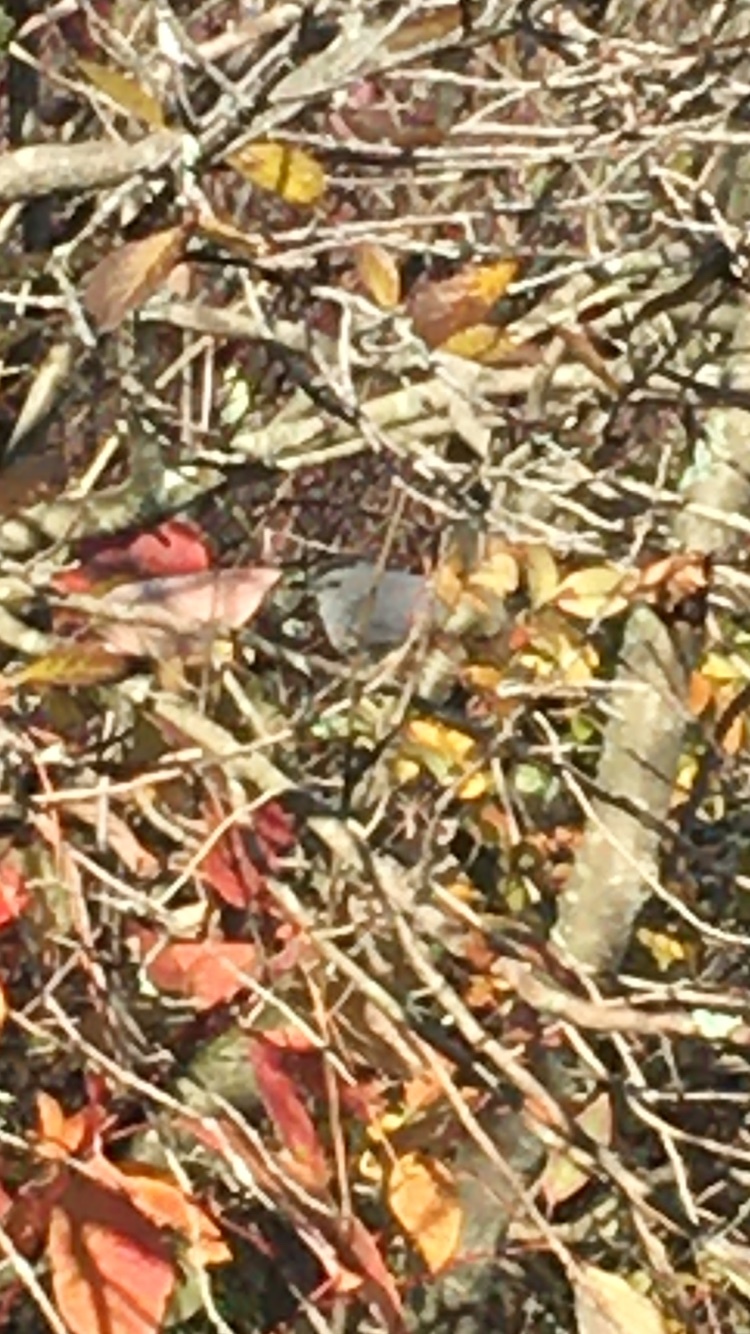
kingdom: Animalia
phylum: Chordata
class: Aves
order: Passeriformes
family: Mimidae
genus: Dumetella
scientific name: Dumetella carolinensis
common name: Gray catbird
